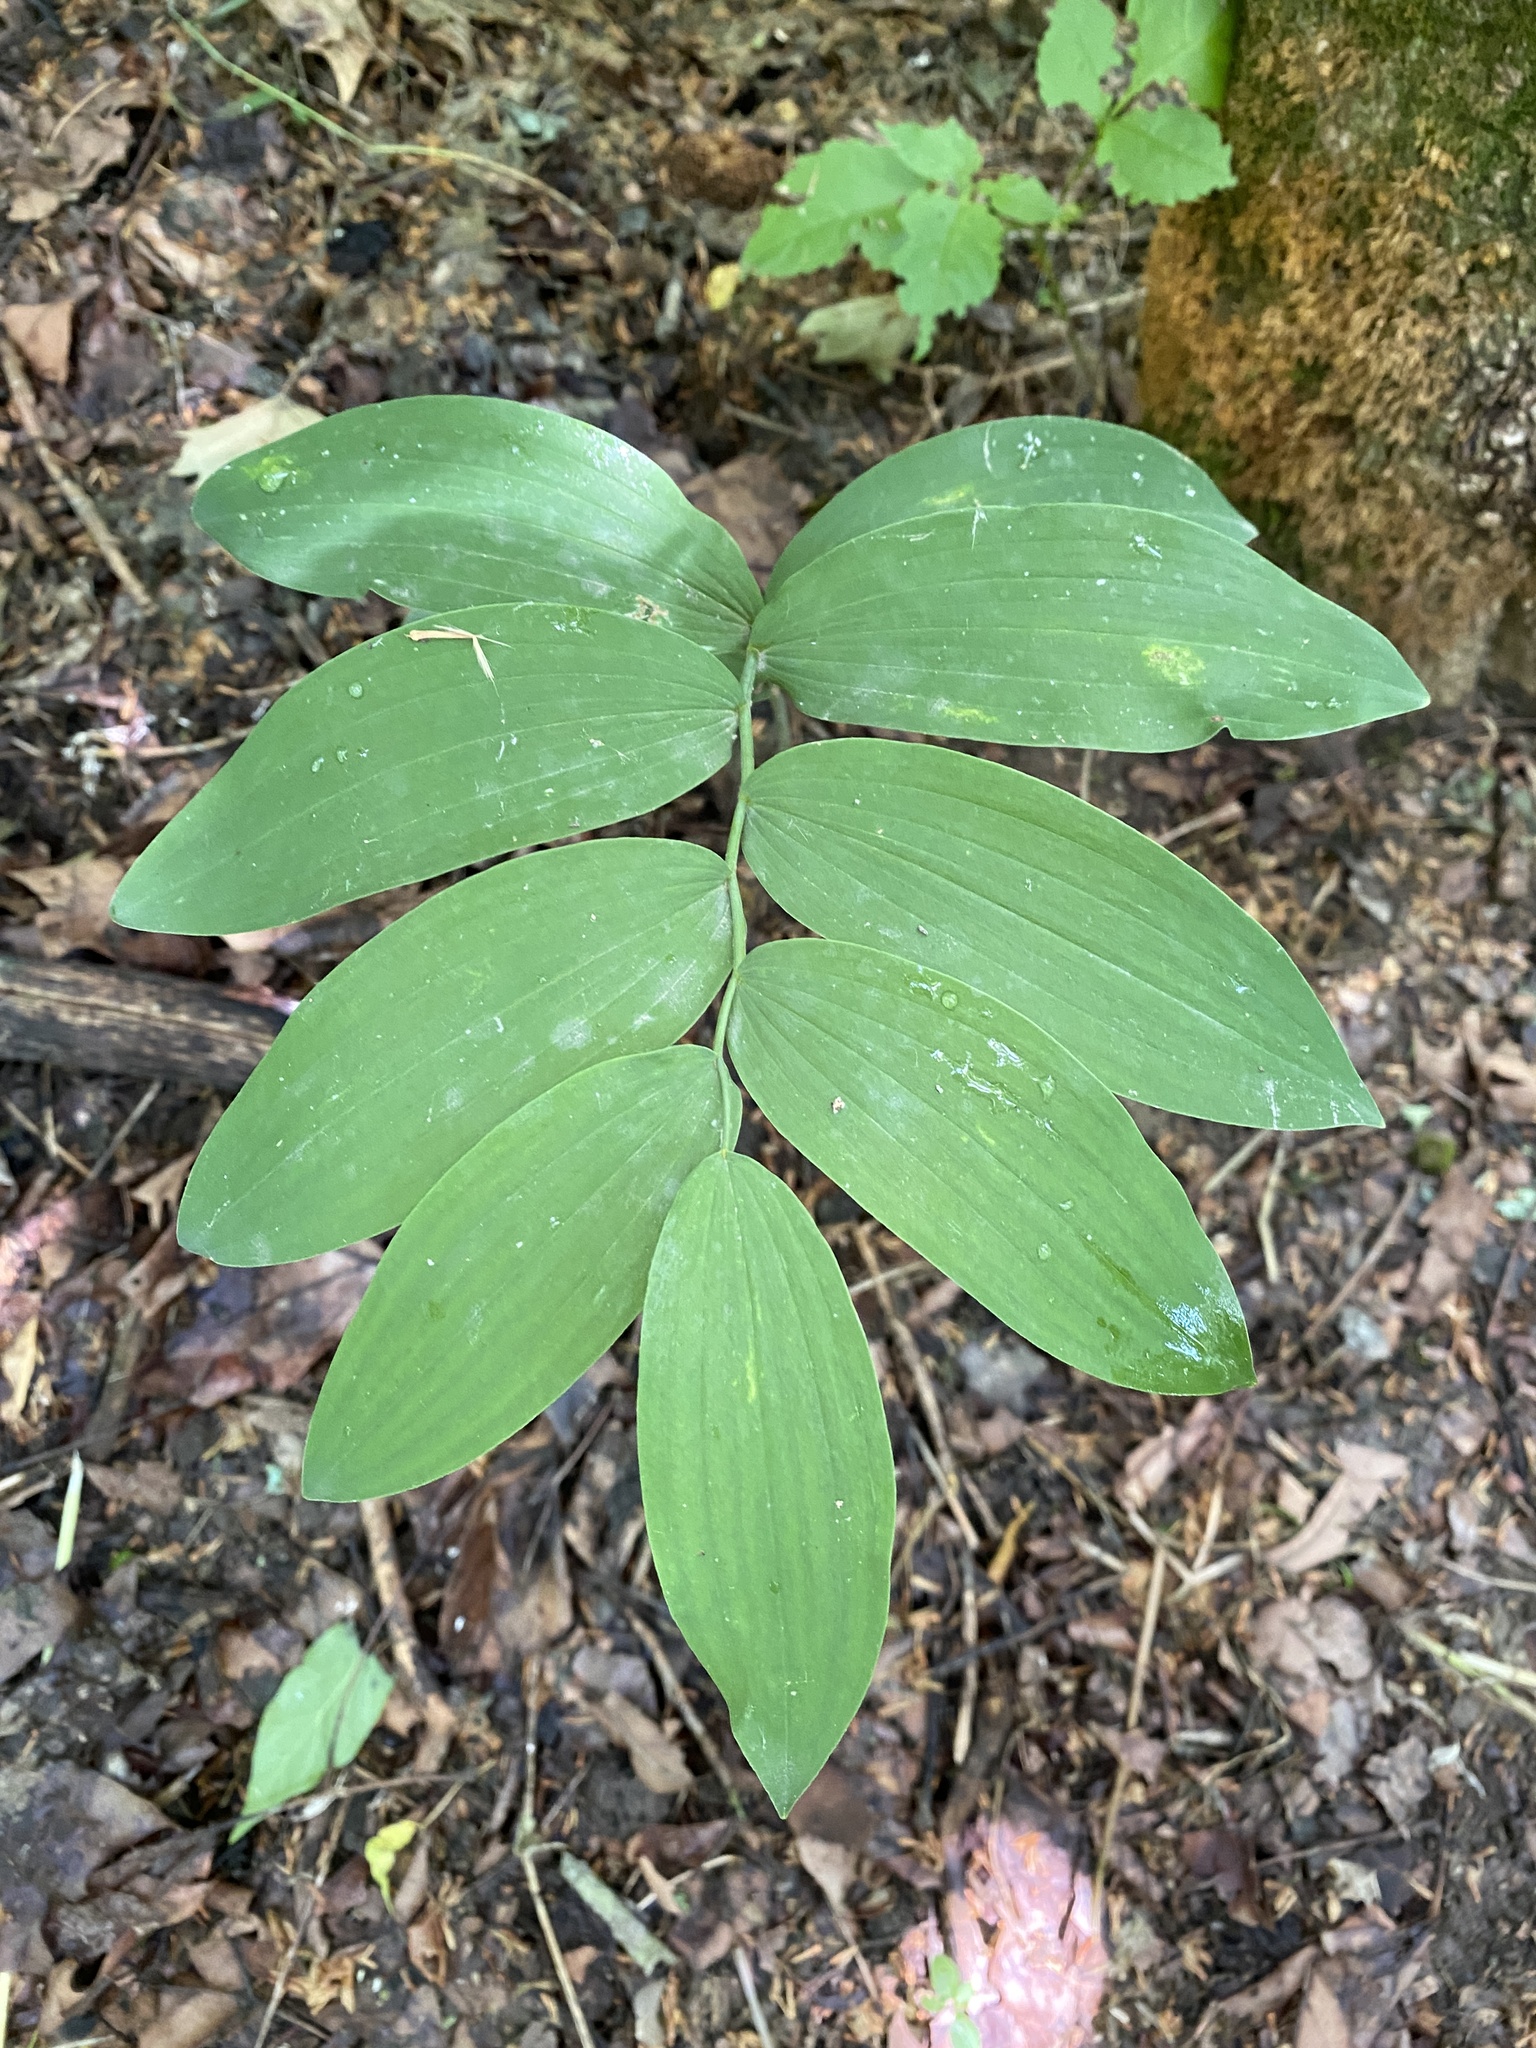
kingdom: Plantae
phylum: Tracheophyta
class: Liliopsida
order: Asparagales
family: Asparagaceae
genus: Polygonatum
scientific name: Polygonatum biflorum
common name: American solomon's-seal
